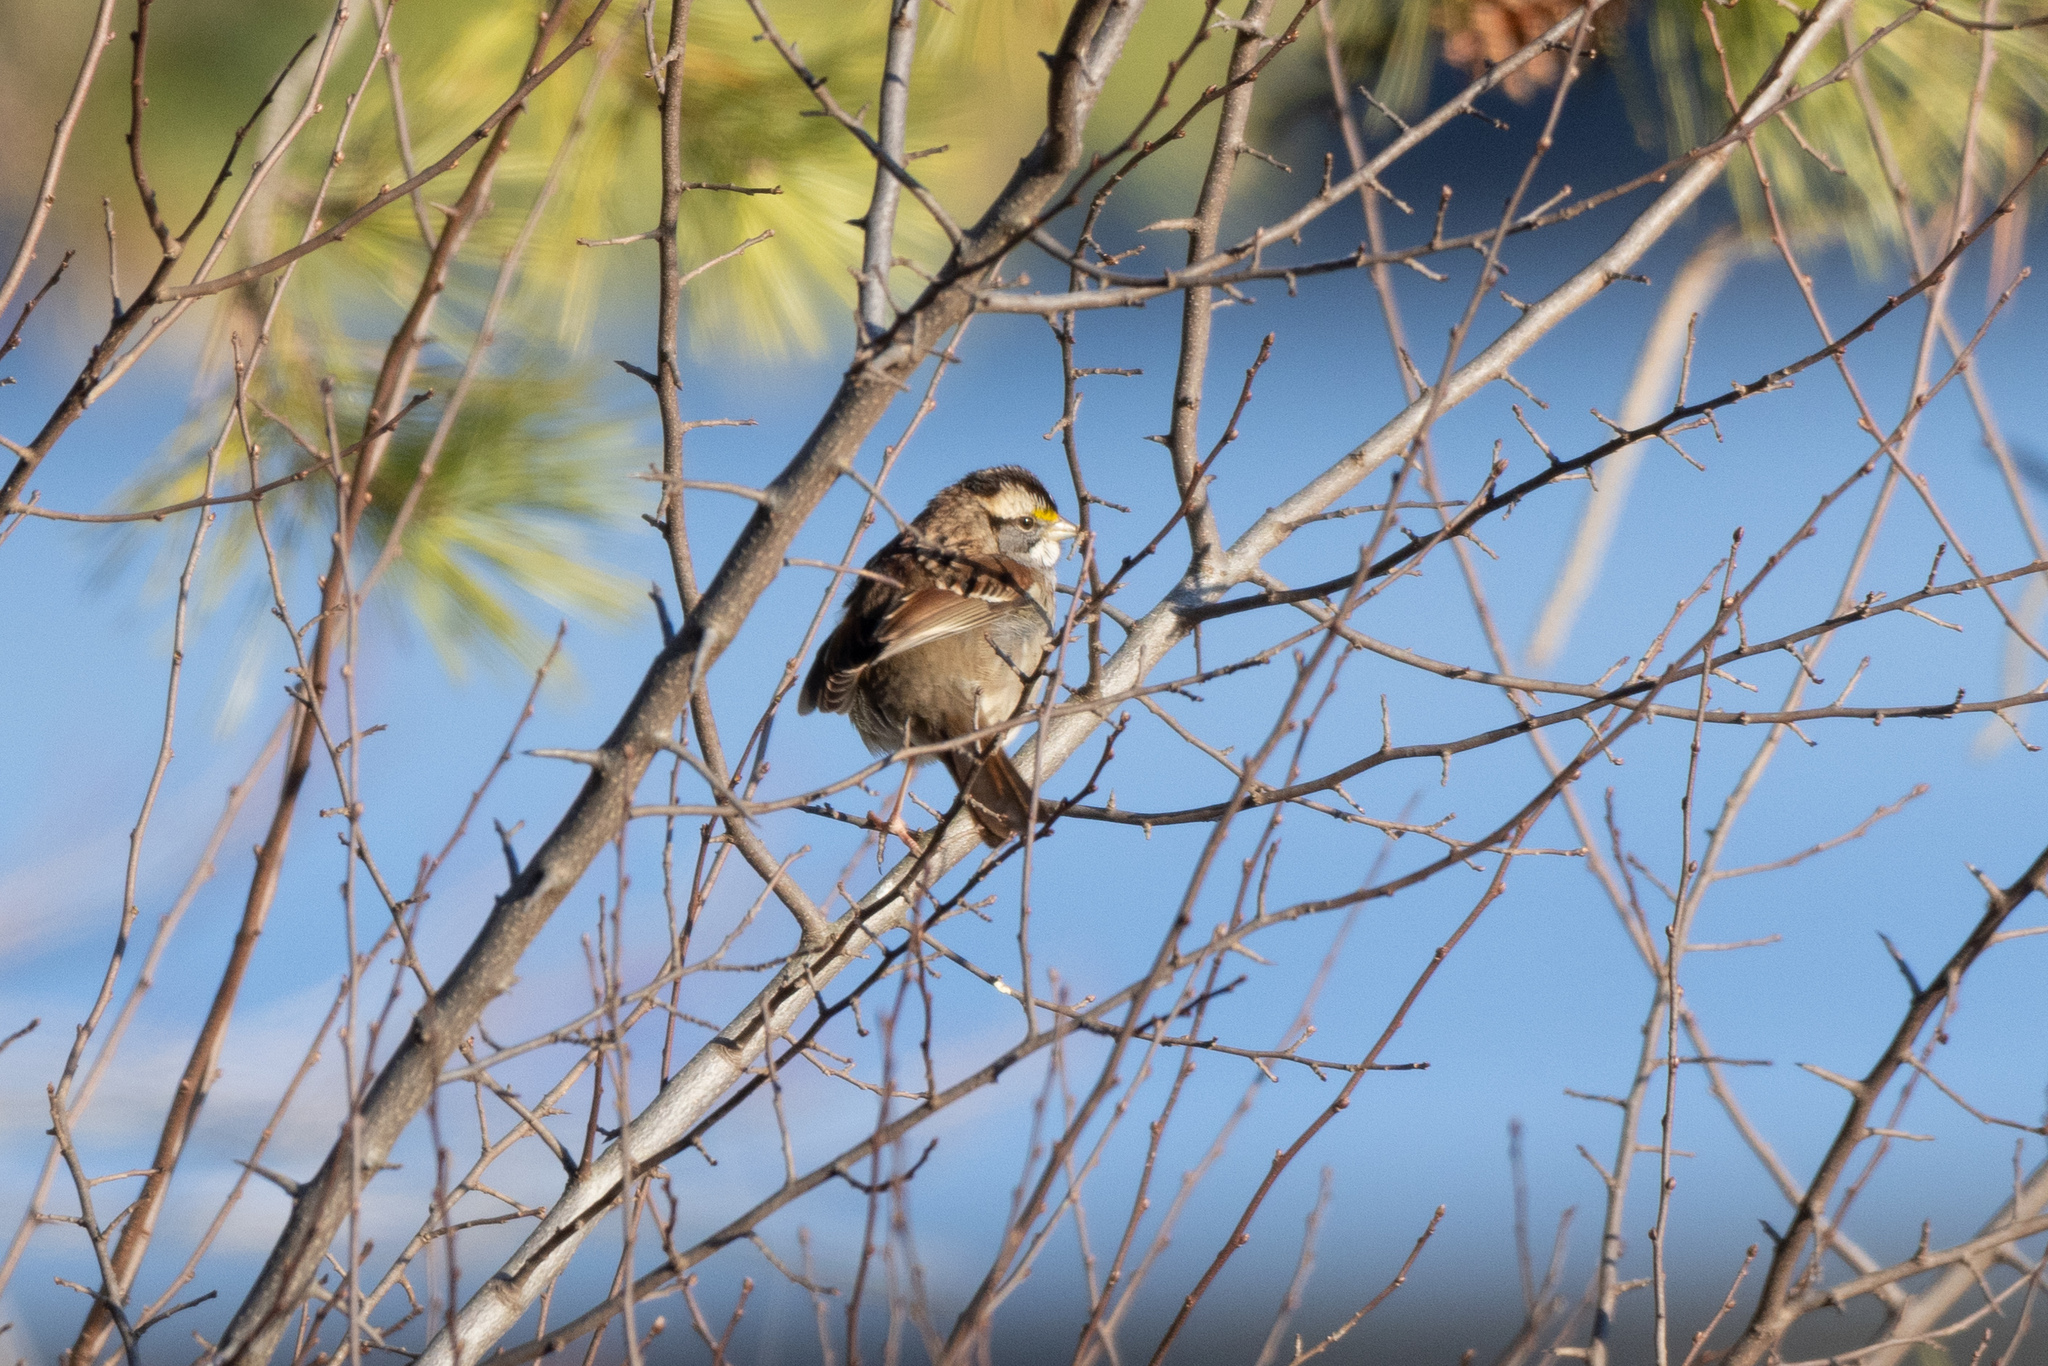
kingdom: Animalia
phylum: Chordata
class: Aves
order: Passeriformes
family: Passerellidae
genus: Zonotrichia
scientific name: Zonotrichia albicollis
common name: White-throated sparrow
